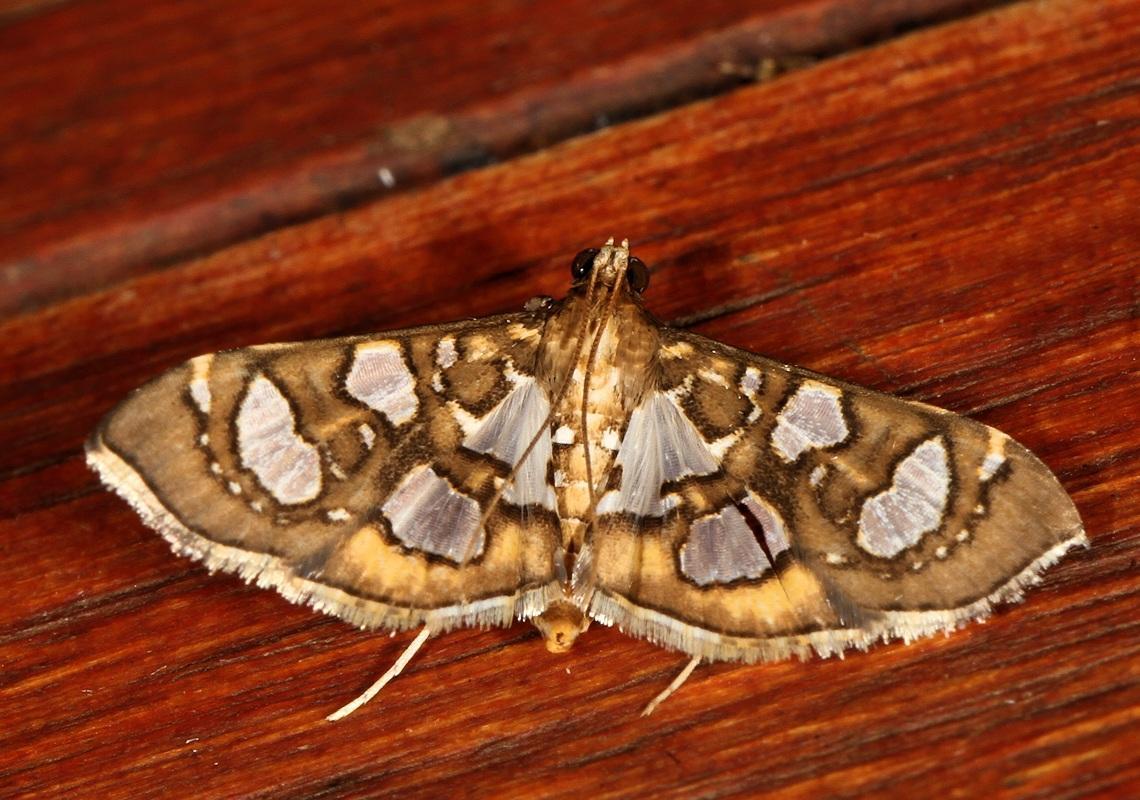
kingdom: Animalia
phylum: Arthropoda
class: Insecta
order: Lepidoptera
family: Crambidae
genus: Nausinoe
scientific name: Nausinoe quadrinalis
